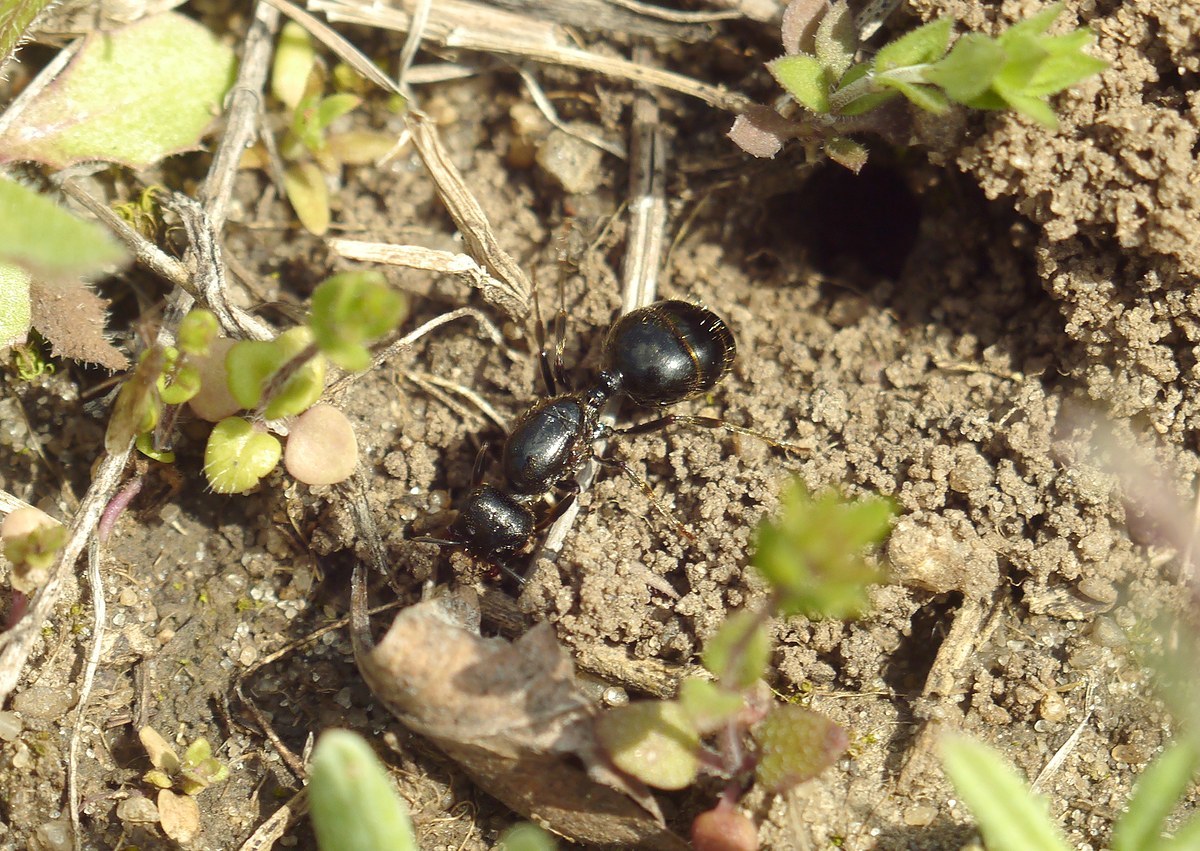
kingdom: Animalia
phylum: Arthropoda
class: Insecta
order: Hymenoptera
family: Formicidae
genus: Messor
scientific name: Messor muticus
